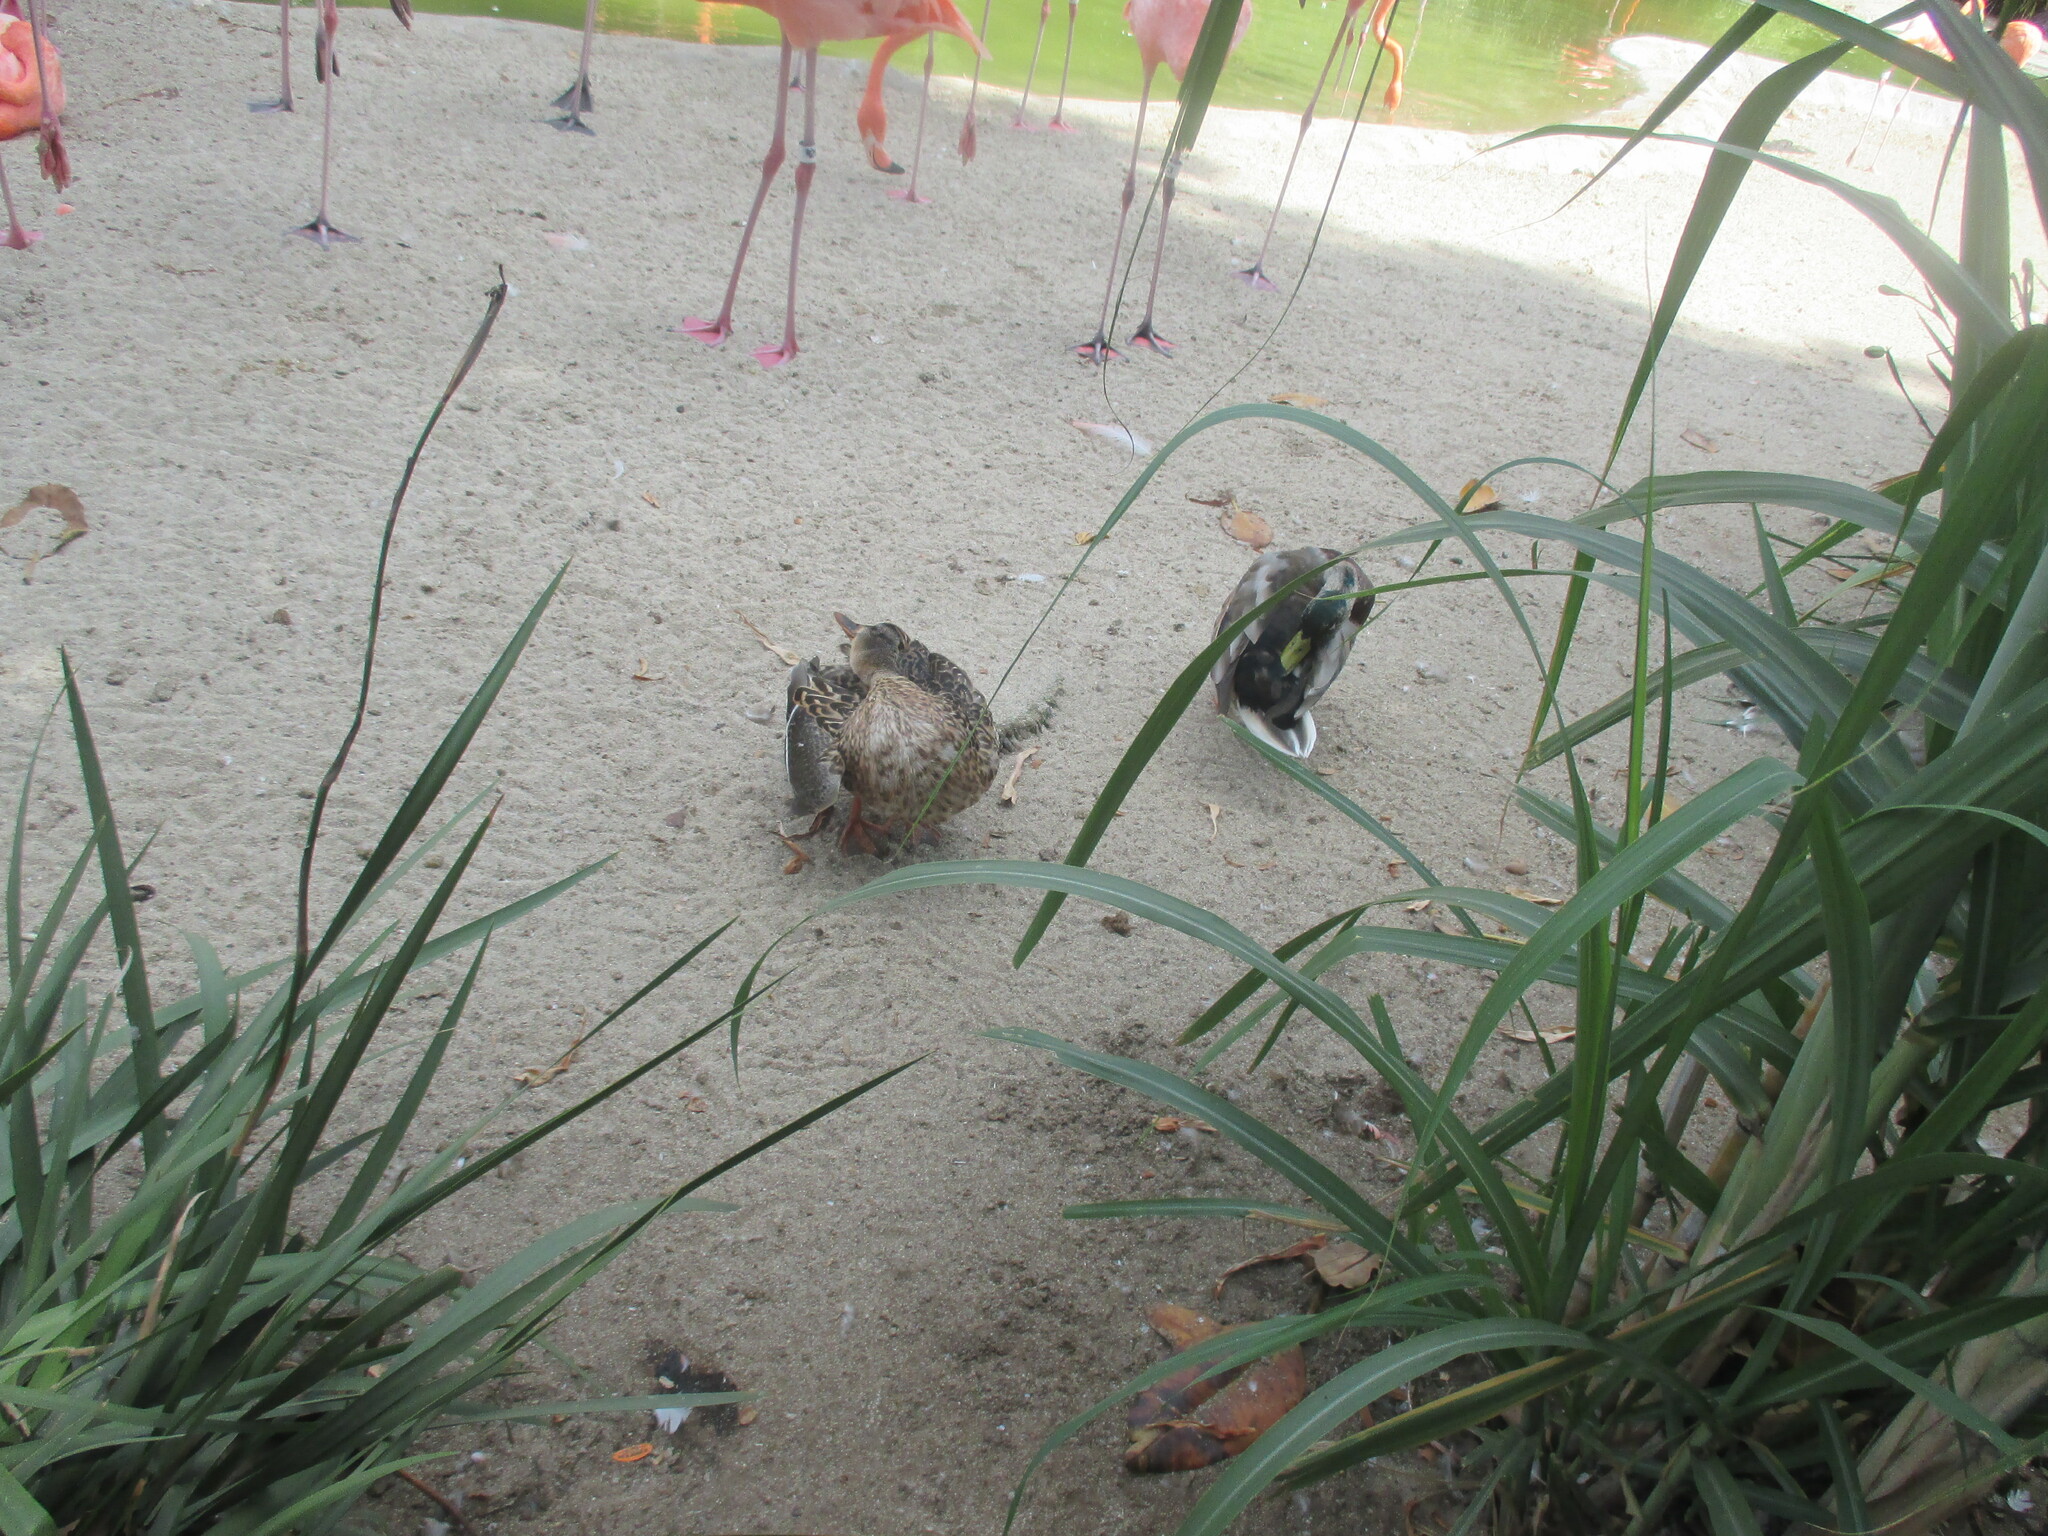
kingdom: Animalia
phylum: Chordata
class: Aves
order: Anseriformes
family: Anatidae
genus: Anas
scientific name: Anas platyrhynchos
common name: Mallard
